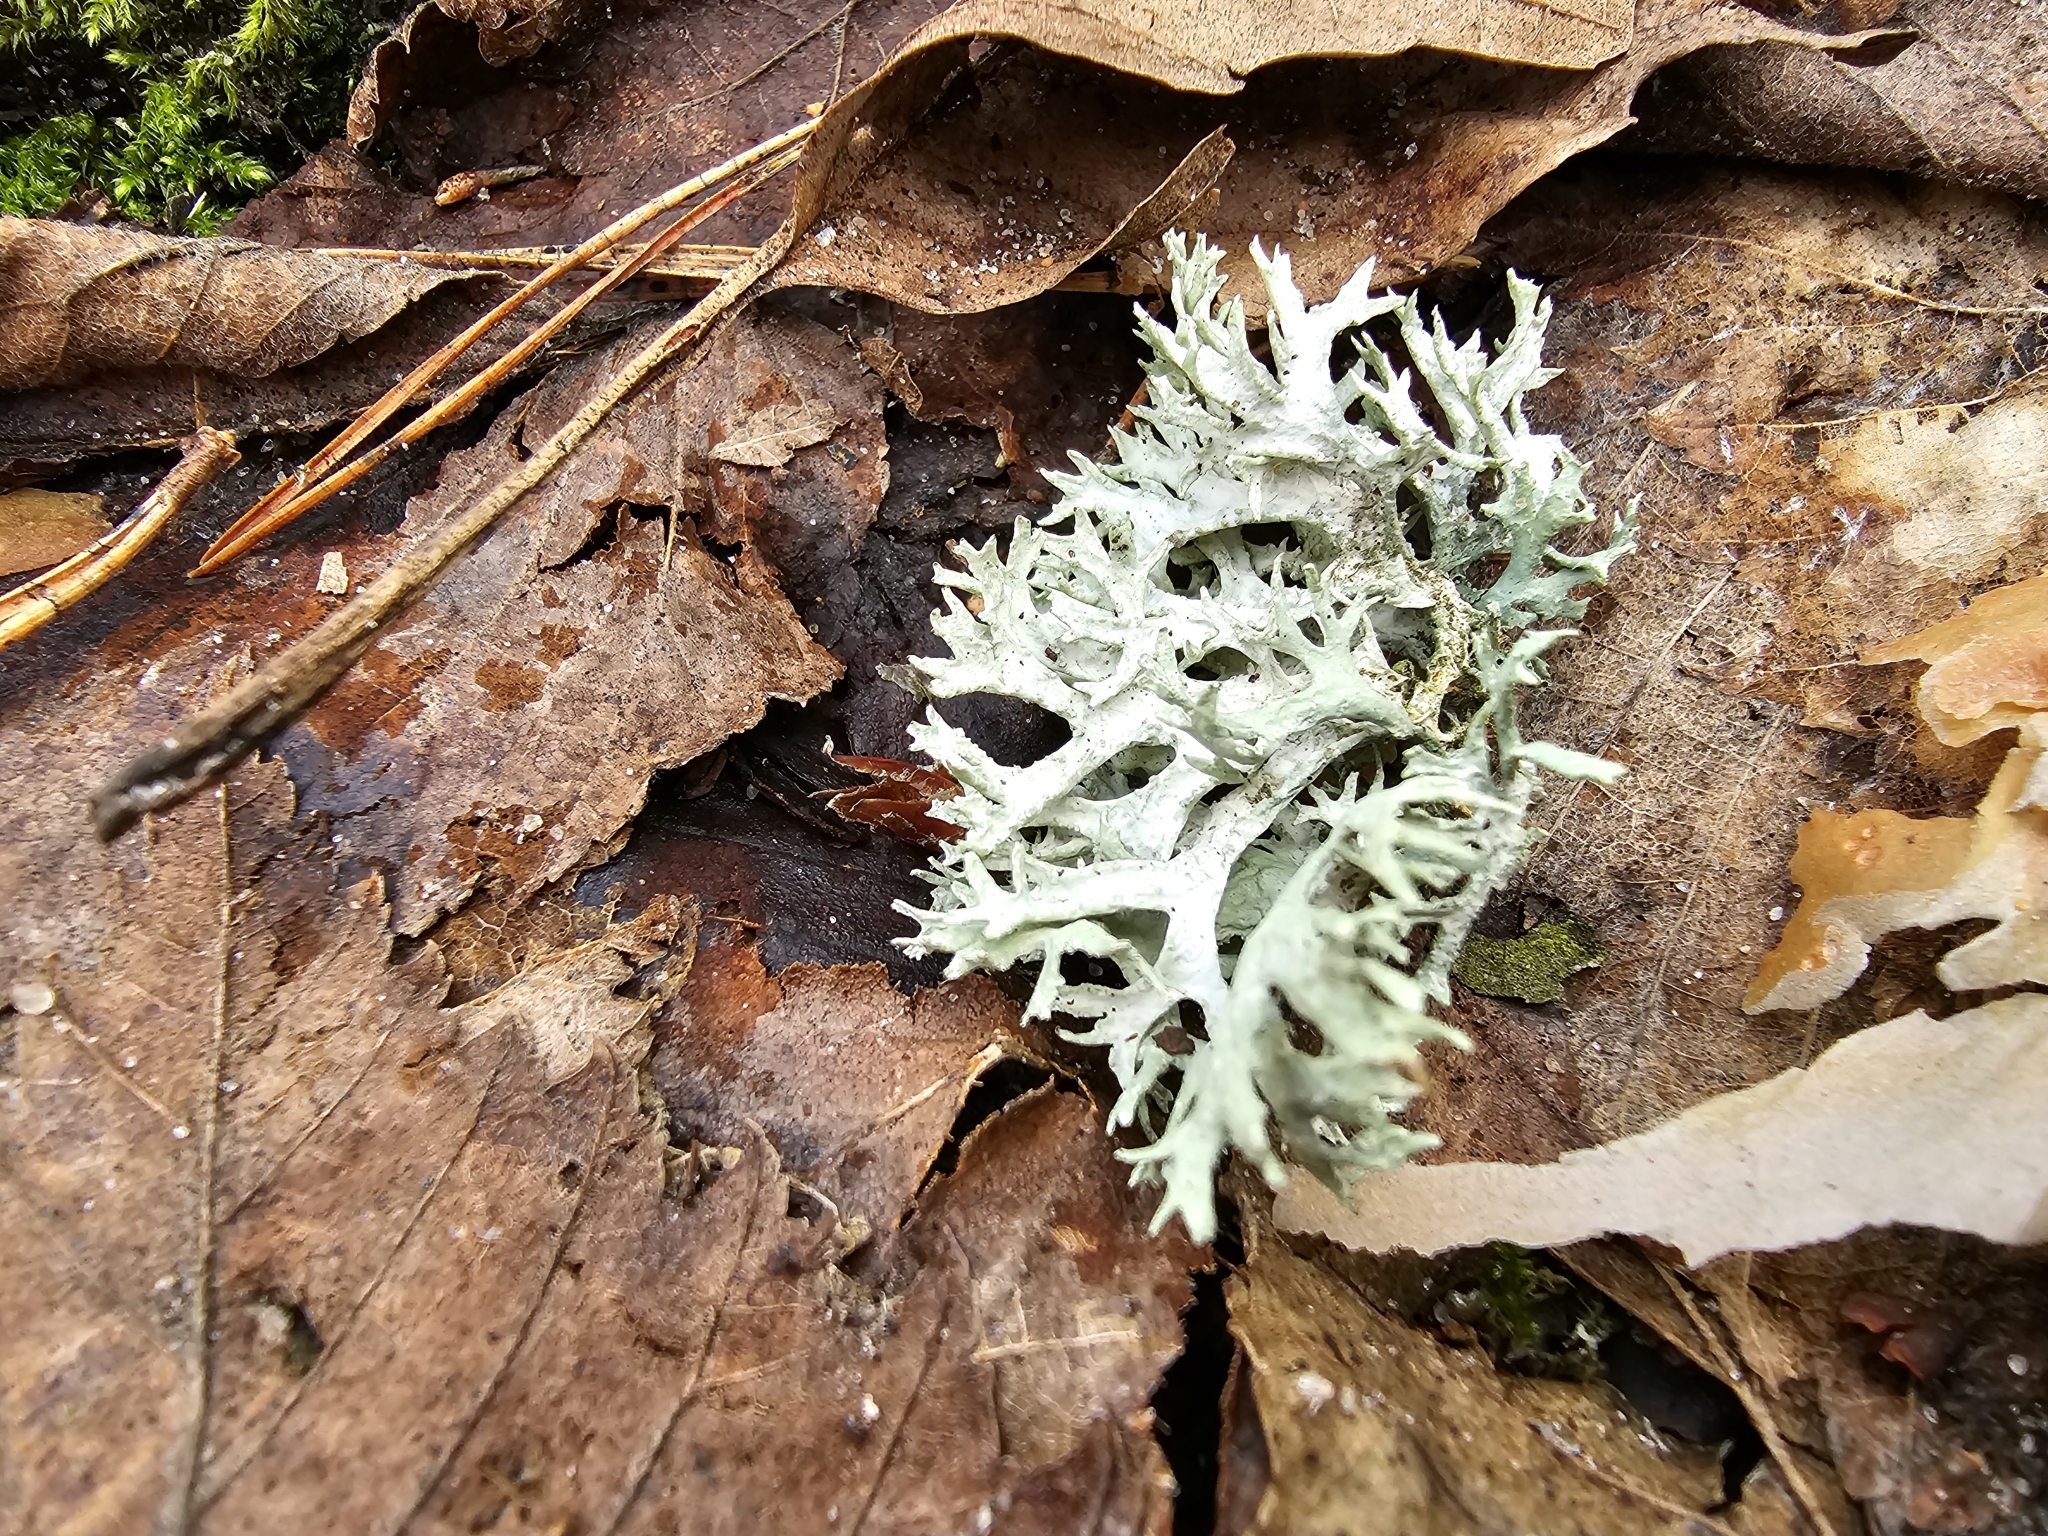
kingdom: Fungi
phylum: Ascomycota
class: Lecanoromycetes
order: Lecanorales
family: Parmeliaceae
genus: Evernia
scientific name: Evernia prunastri
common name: Oak moss
